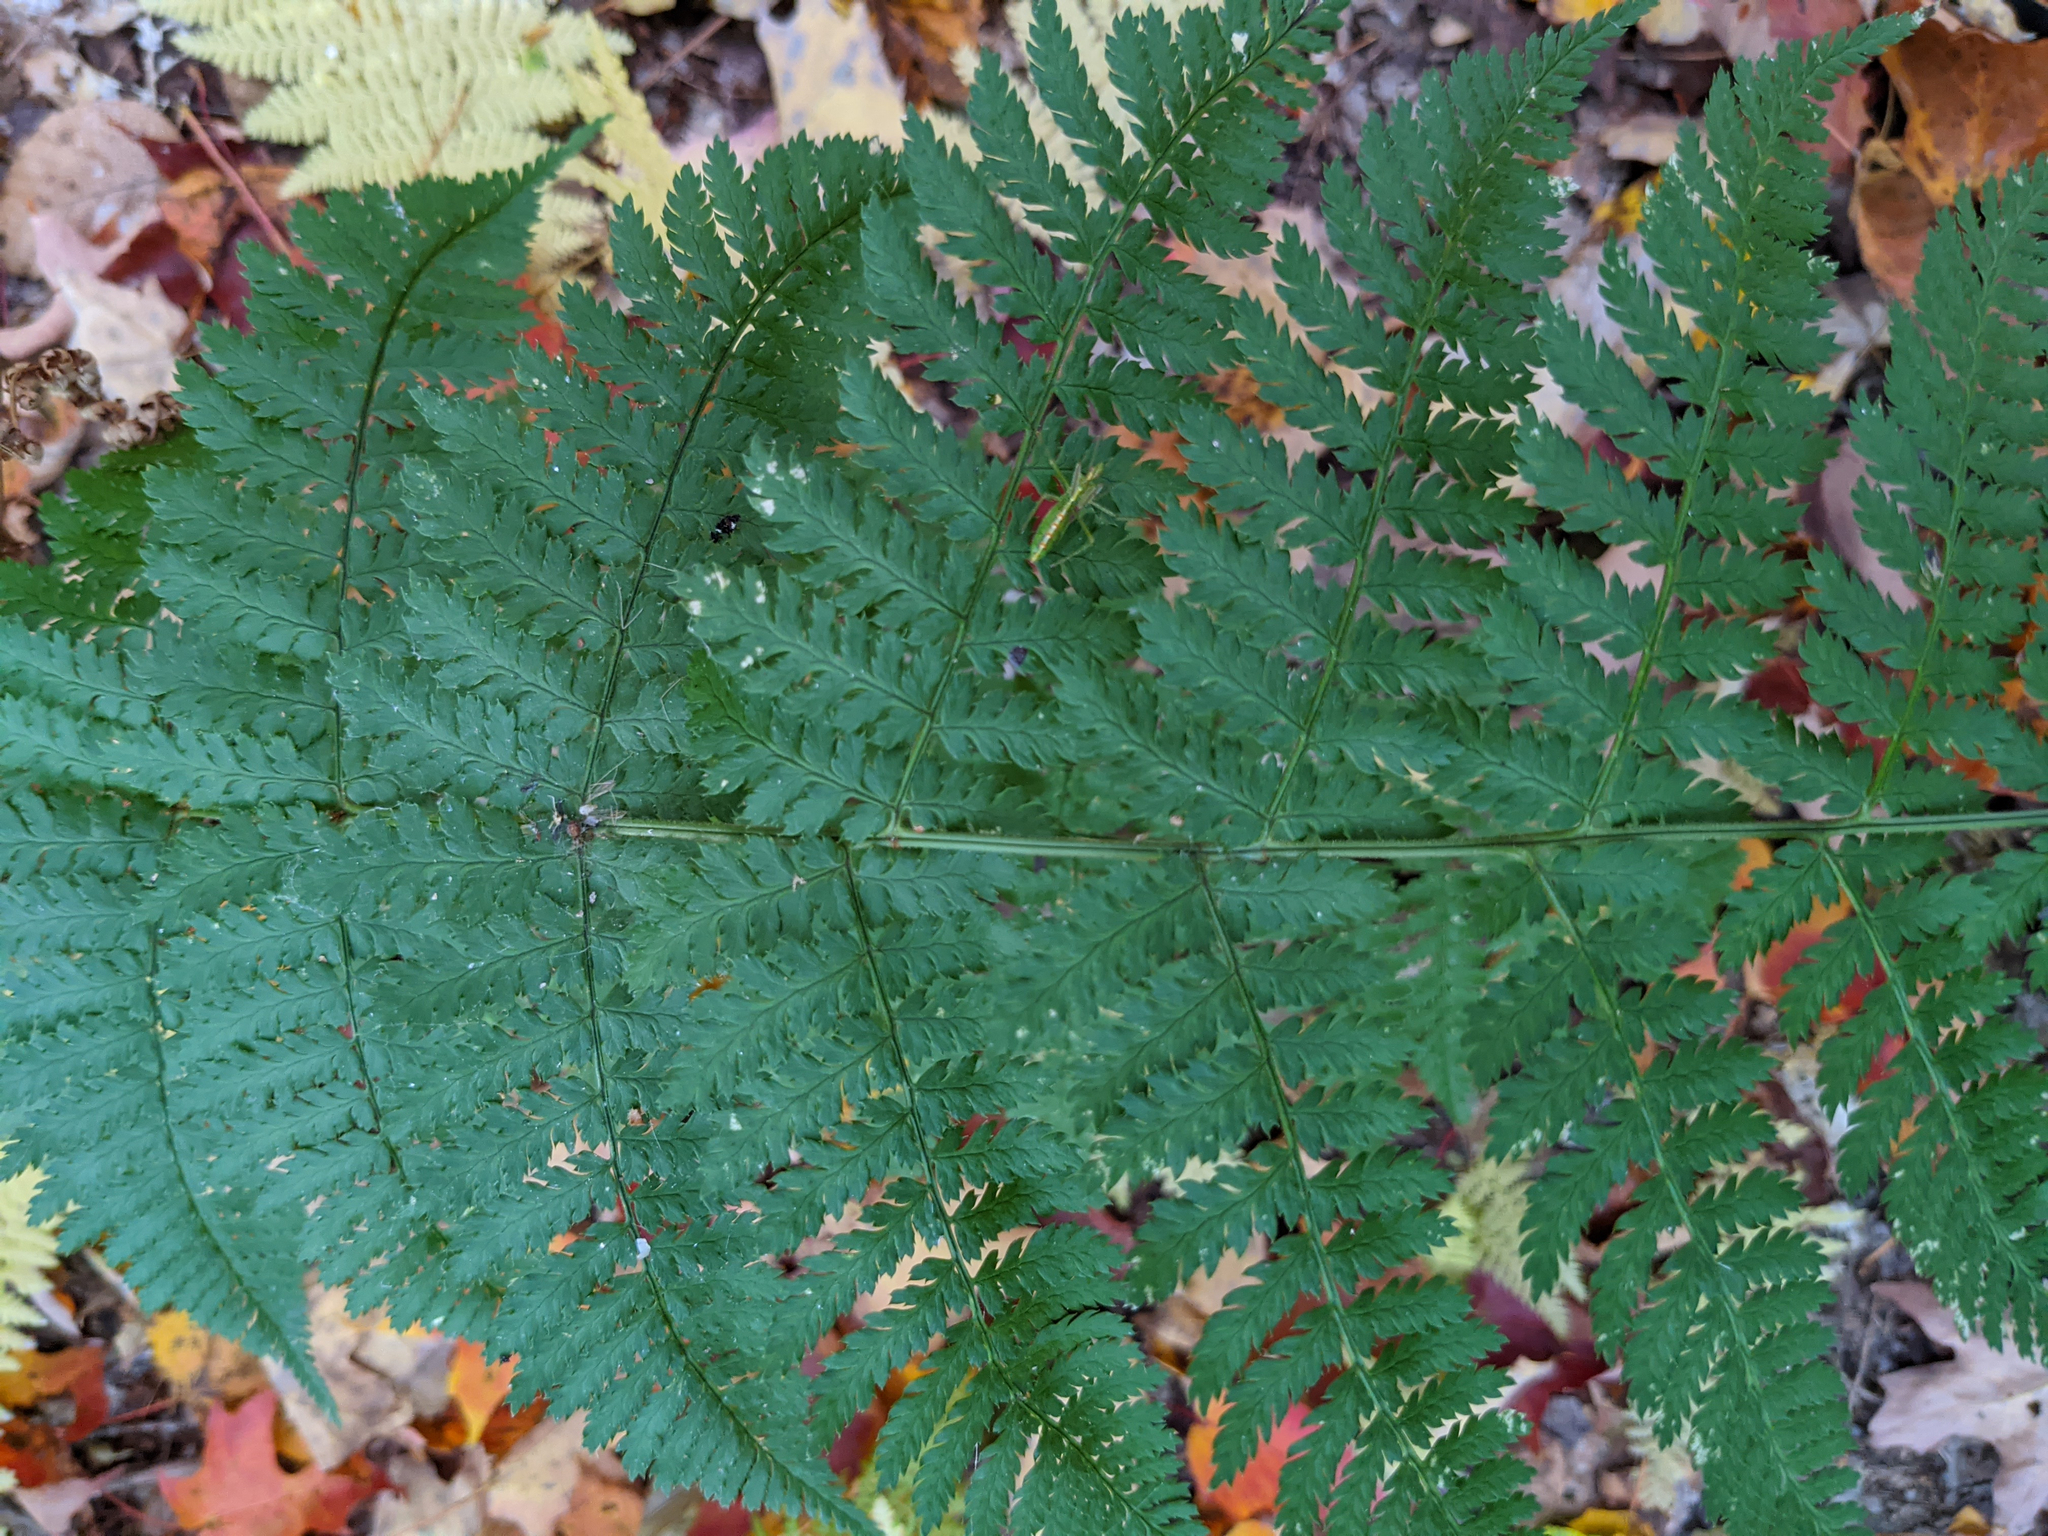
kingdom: Plantae
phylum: Tracheophyta
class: Polypodiopsida
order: Polypodiales
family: Dryopteridaceae
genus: Dryopteris
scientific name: Dryopteris intermedia
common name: Evergreen wood fern
